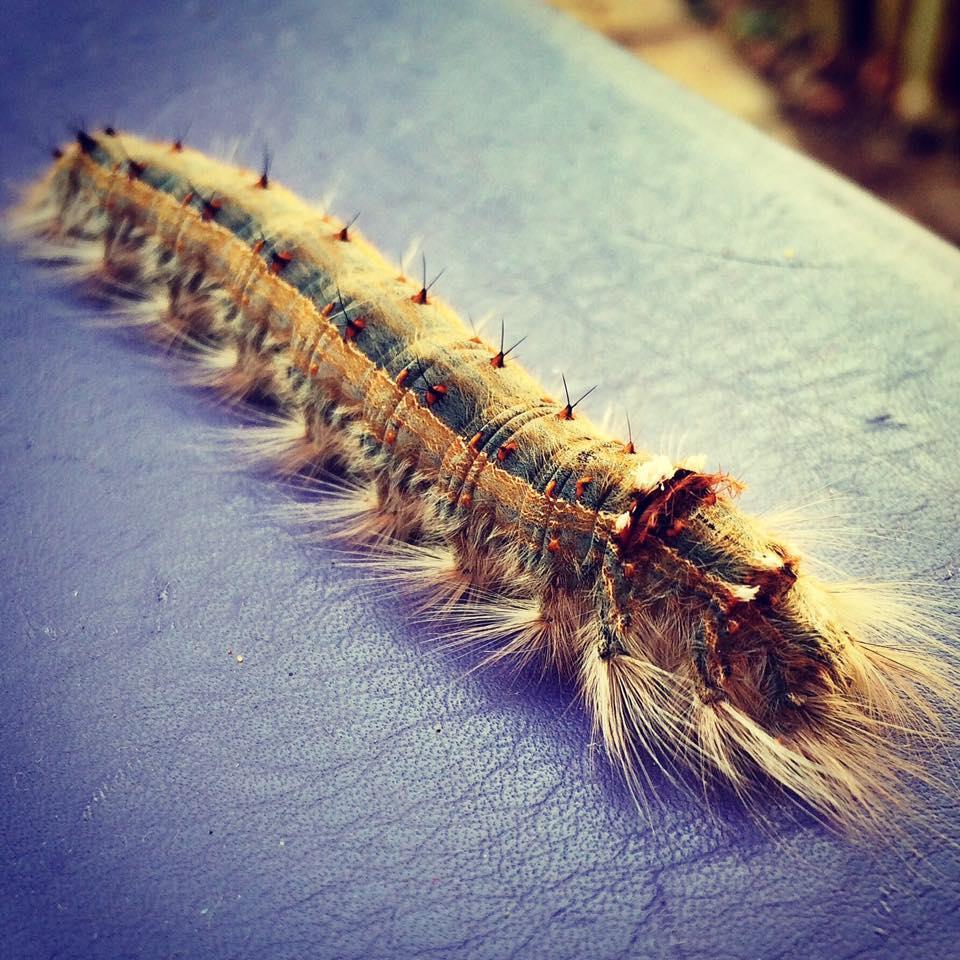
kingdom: Animalia
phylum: Arthropoda
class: Insecta
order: Lepidoptera
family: Lasiocampidae
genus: Eutricha
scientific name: Eutricha
